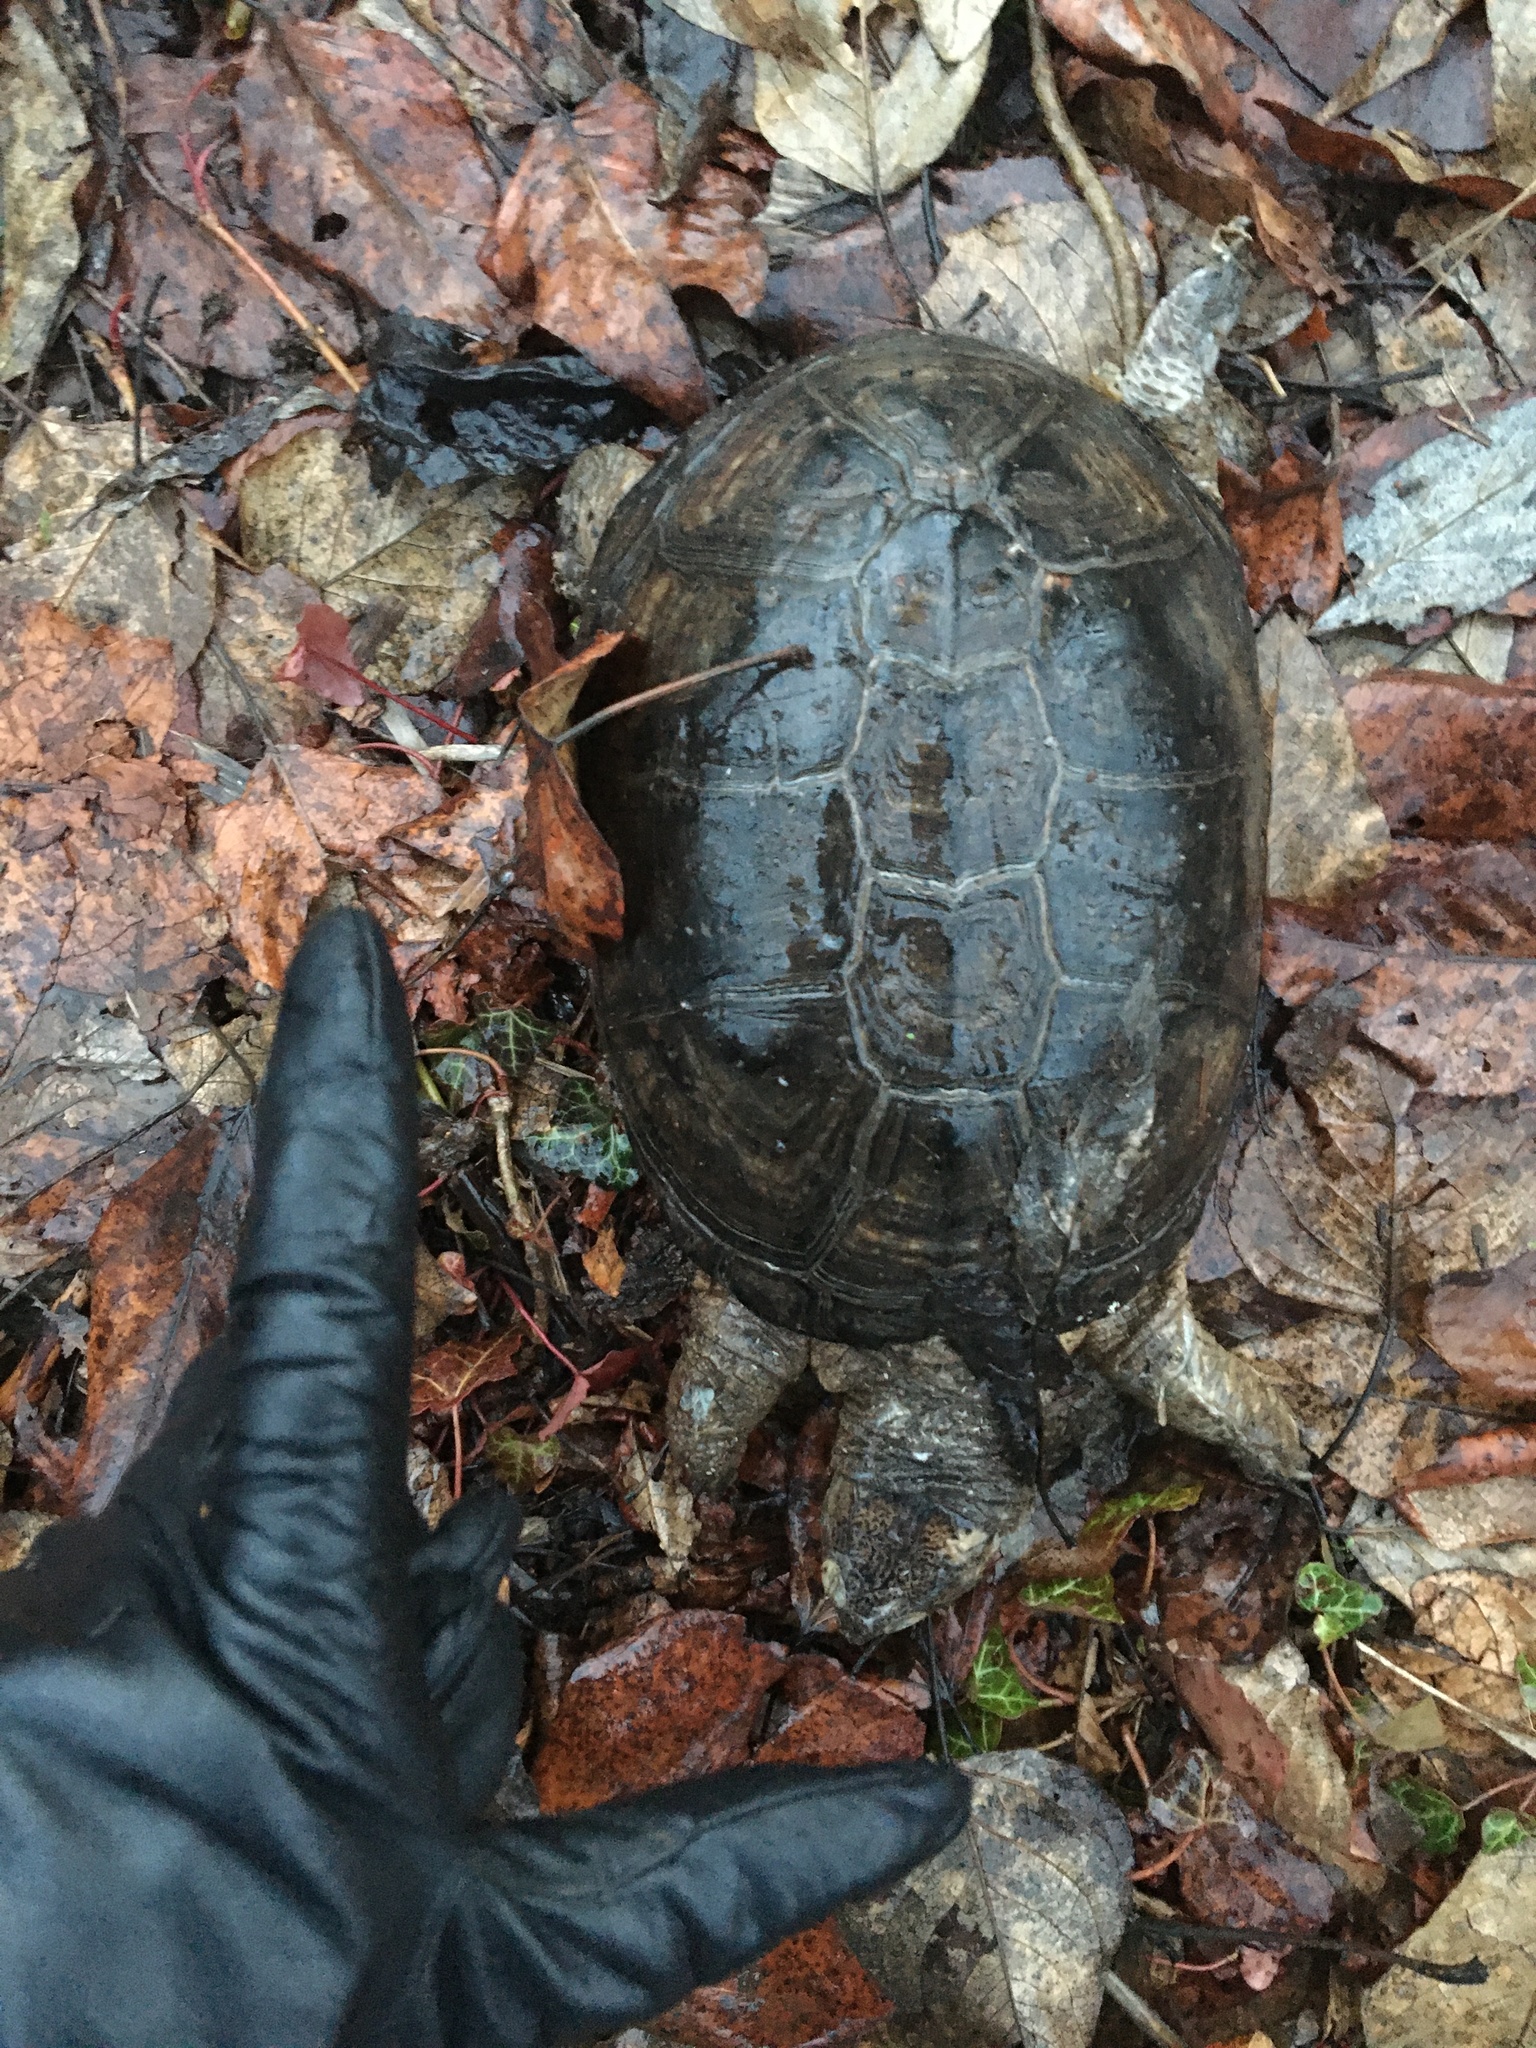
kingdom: Animalia
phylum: Chordata
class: Testudines
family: Pelomedusidae
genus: Pelusios
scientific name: Pelusios castaneus
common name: West african mud turtle
